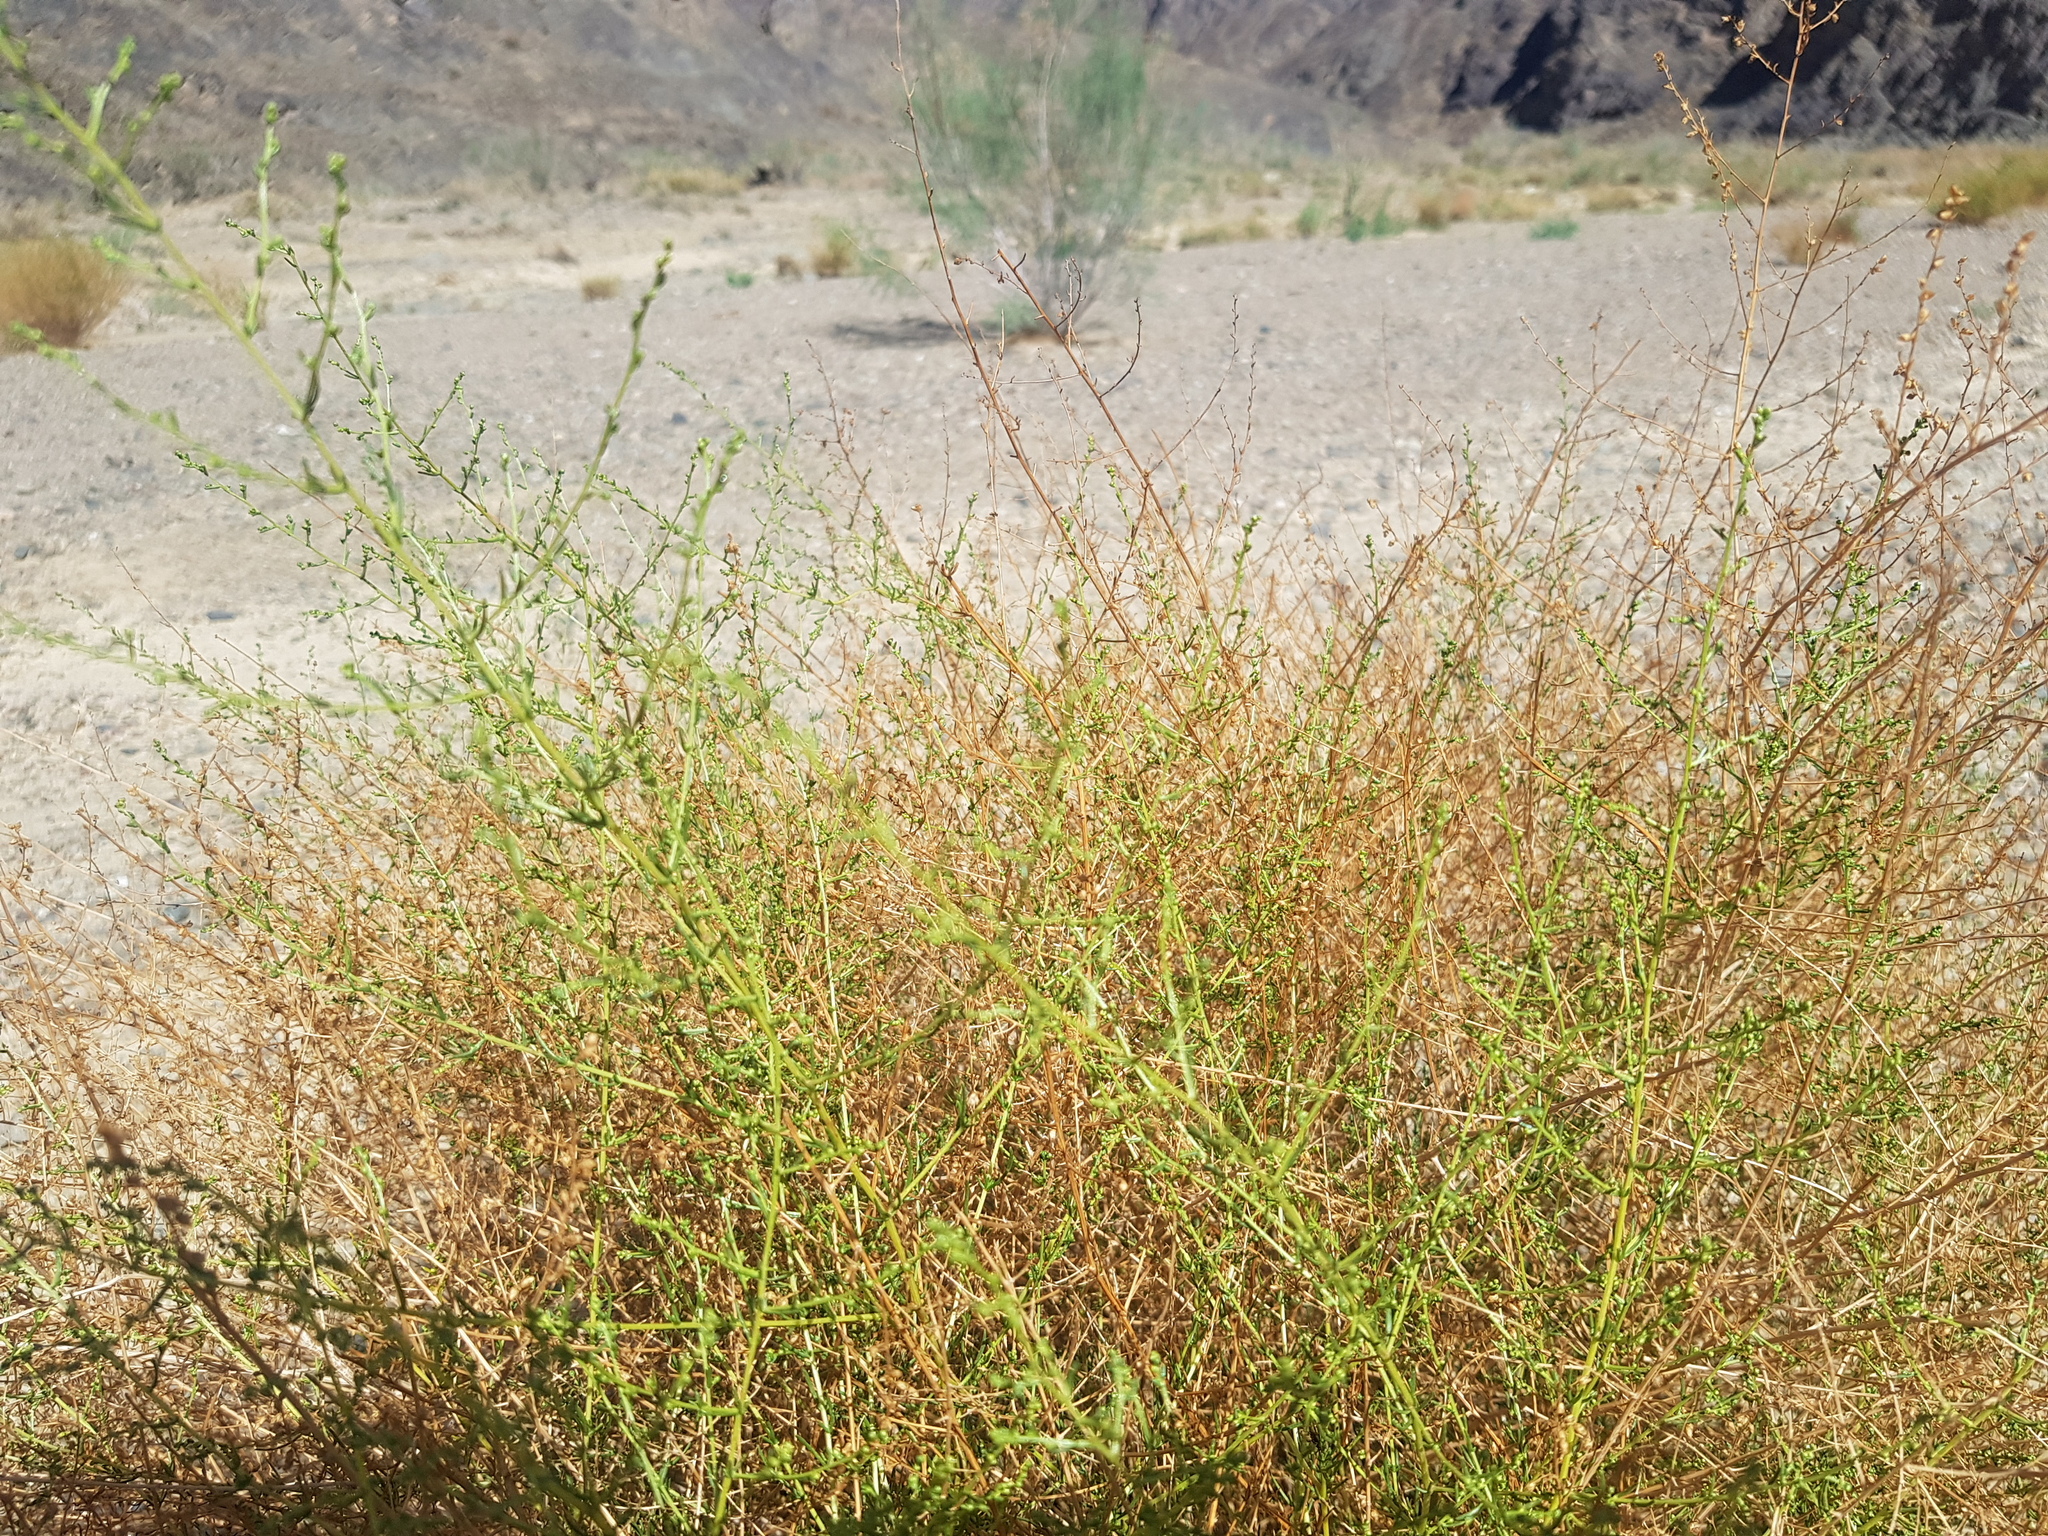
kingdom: Plantae
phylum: Tracheophyta
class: Magnoliopsida
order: Asterales
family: Asteraceae
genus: Artemisia
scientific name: Artemisia xanthochloa
